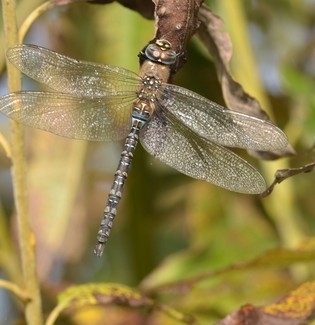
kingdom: Animalia
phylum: Arthropoda
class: Insecta
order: Odonata
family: Aeshnidae
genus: Aeshna
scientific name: Aeshna mixta
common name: Migrant hawker
